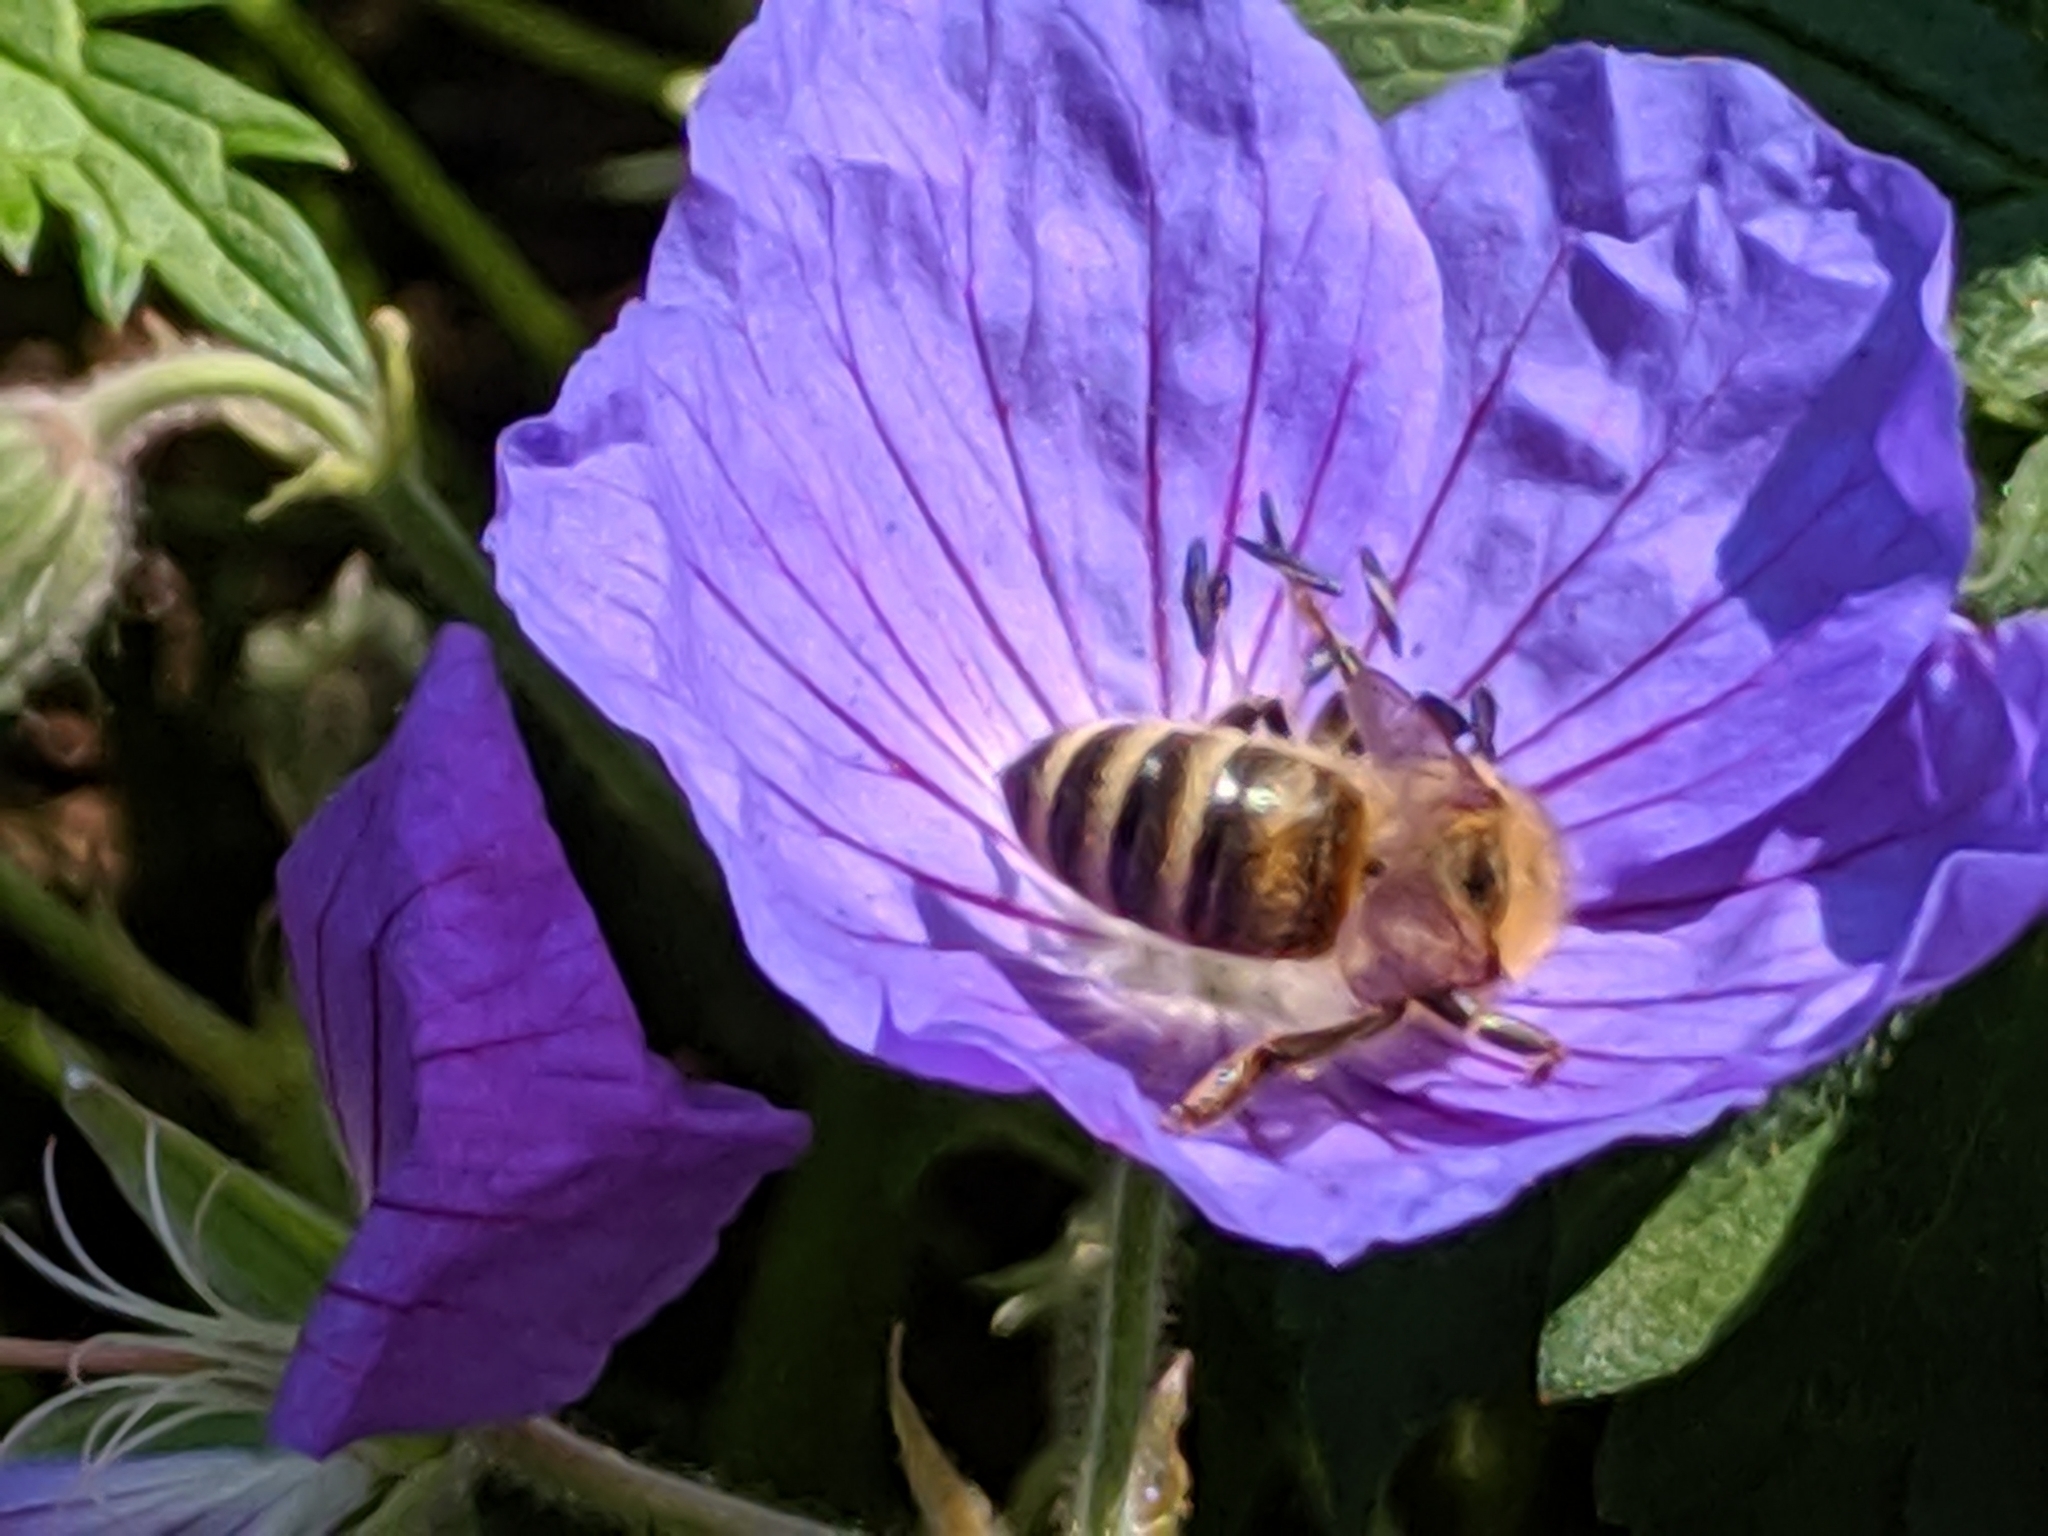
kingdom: Animalia
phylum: Arthropoda
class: Insecta
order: Hymenoptera
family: Apidae
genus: Apis
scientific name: Apis mellifera
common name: Honey bee
